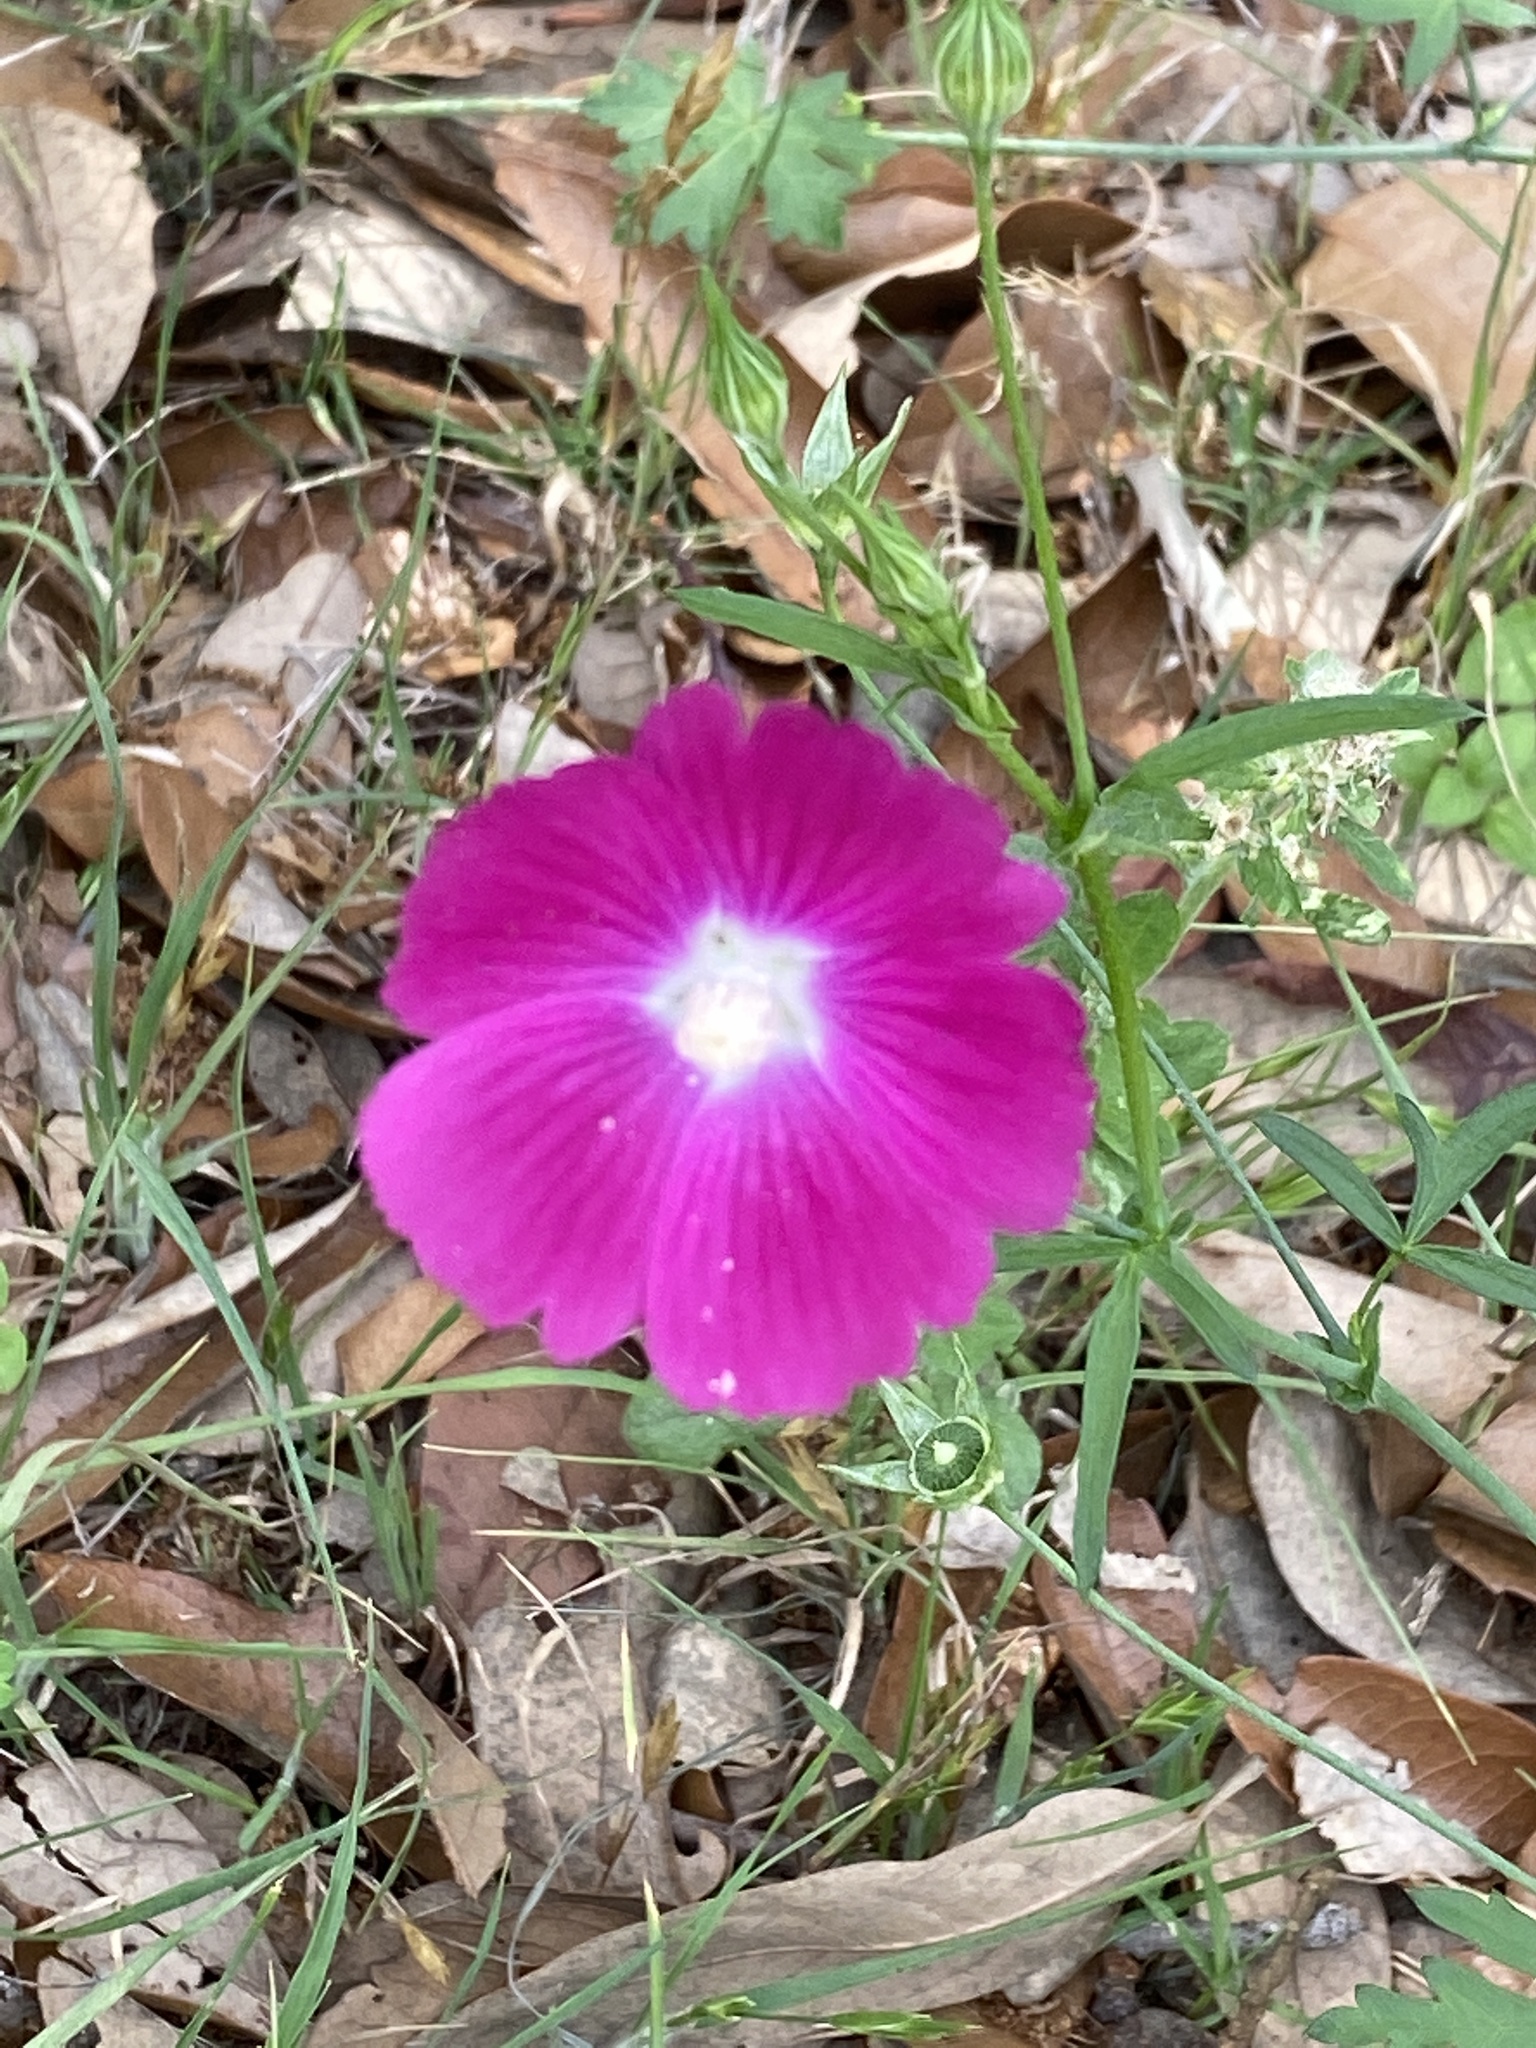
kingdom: Plantae
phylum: Tracheophyta
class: Magnoliopsida
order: Malvales
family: Malvaceae
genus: Callirhoe
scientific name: Callirhoe leiocarpa
